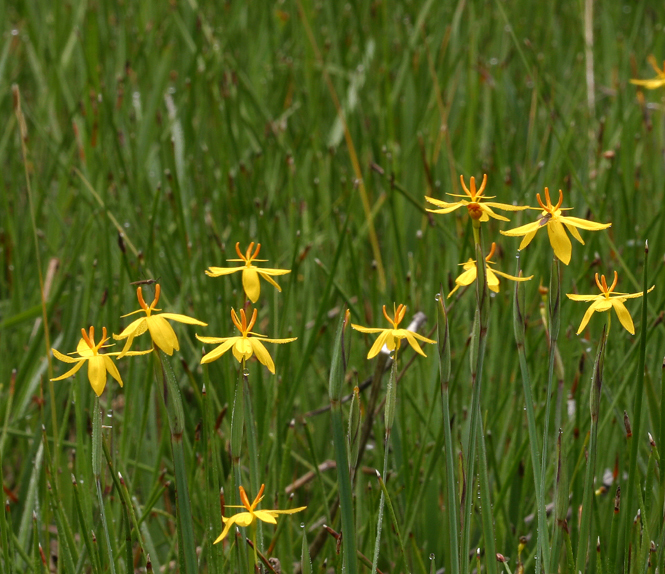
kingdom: Plantae
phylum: Tracheophyta
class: Liliopsida
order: Asparagales
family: Iridaceae
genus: Sisyrinchium
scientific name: Sisyrinchium elmeri
